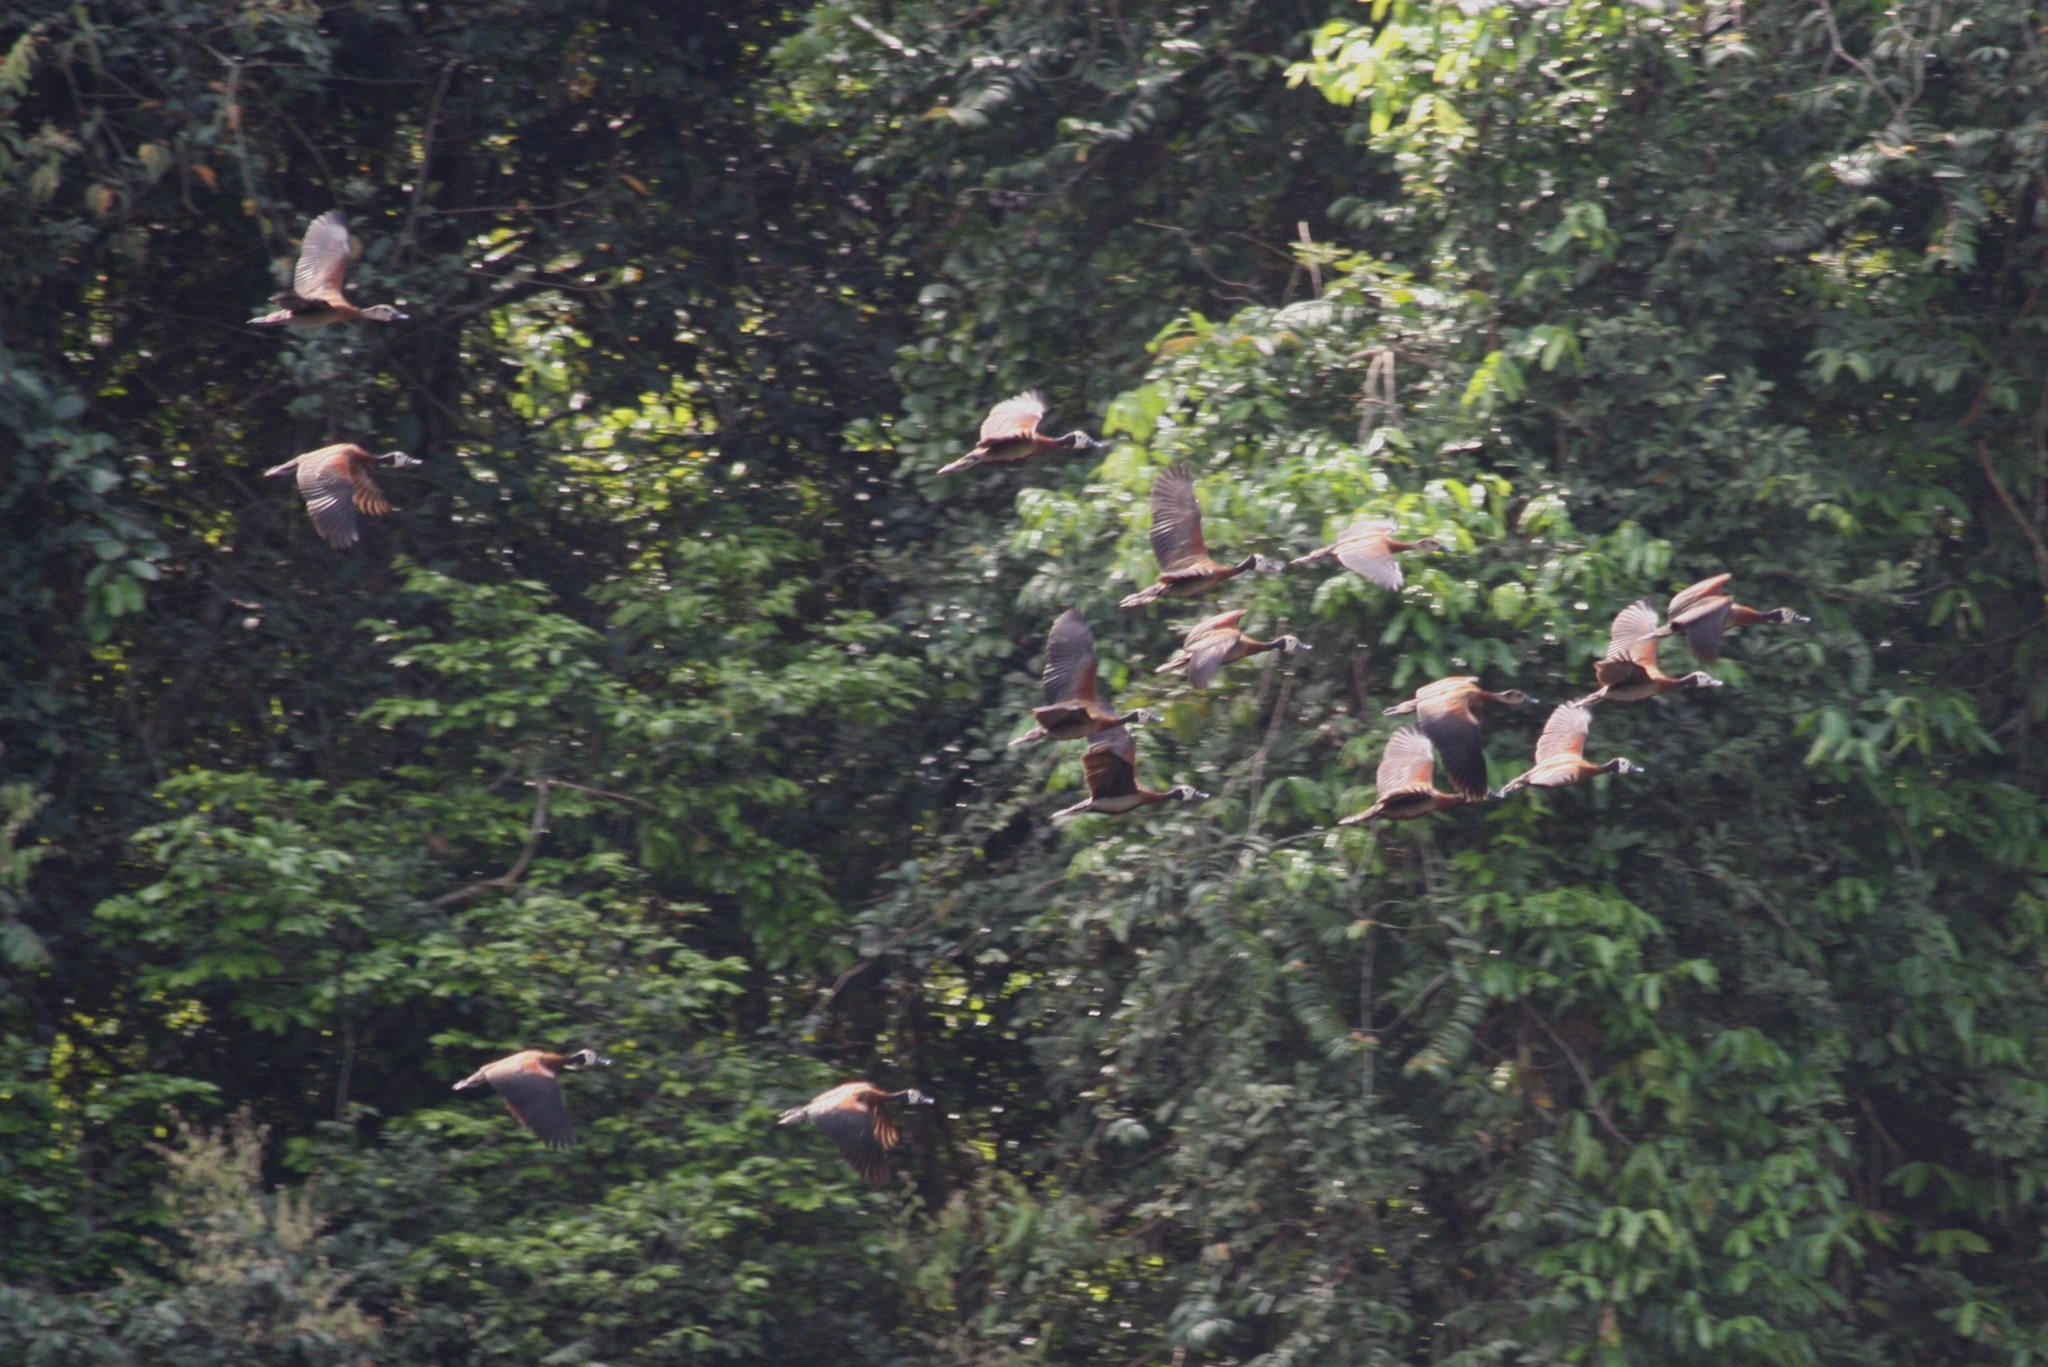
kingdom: Animalia
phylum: Chordata
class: Aves
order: Anseriformes
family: Anatidae
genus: Dendrocygna
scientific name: Dendrocygna viduata
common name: White-faced whistling duck
